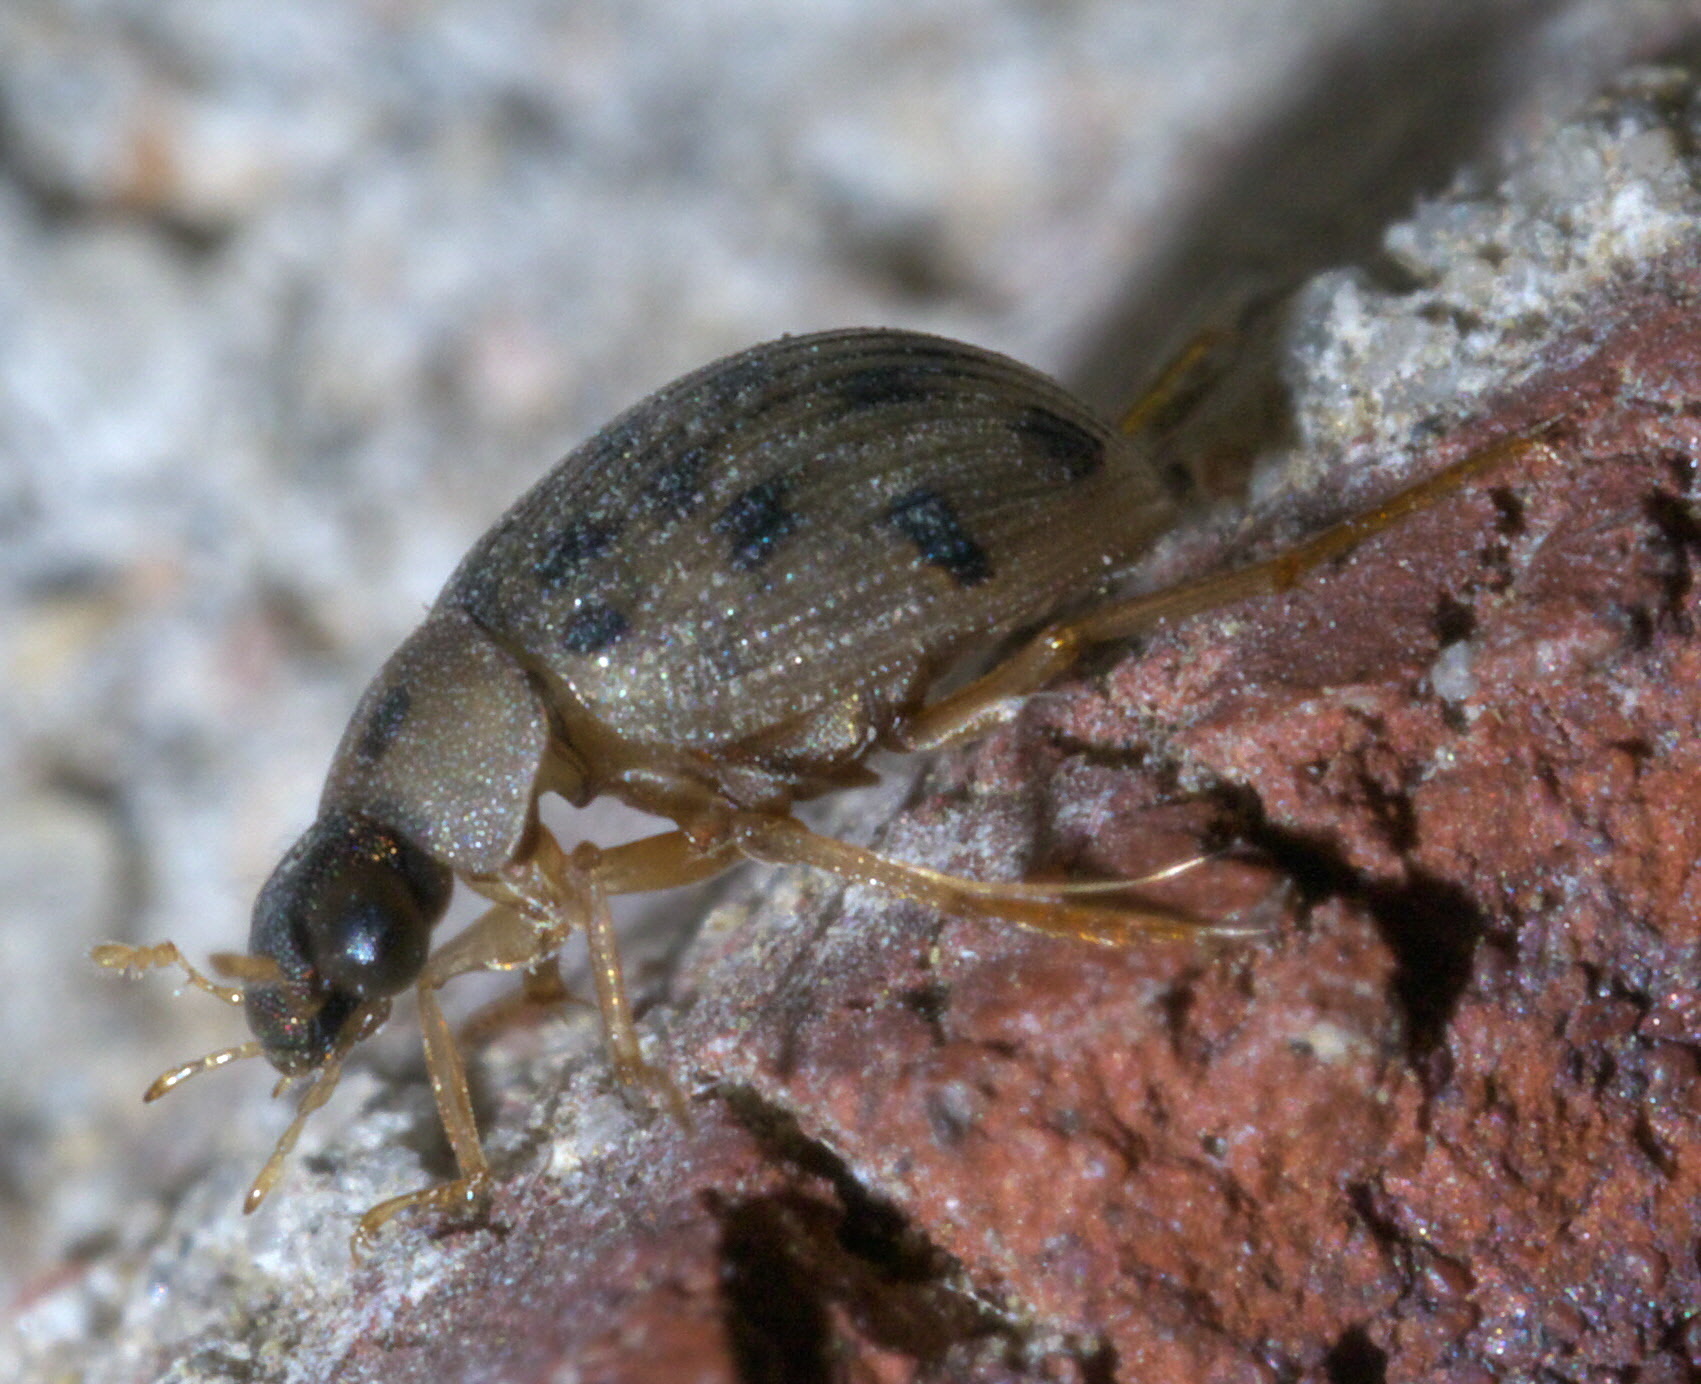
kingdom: Animalia
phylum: Arthropoda
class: Insecta
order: Coleoptera
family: Hydrophilidae
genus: Berosus
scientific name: Berosus pantherinus
